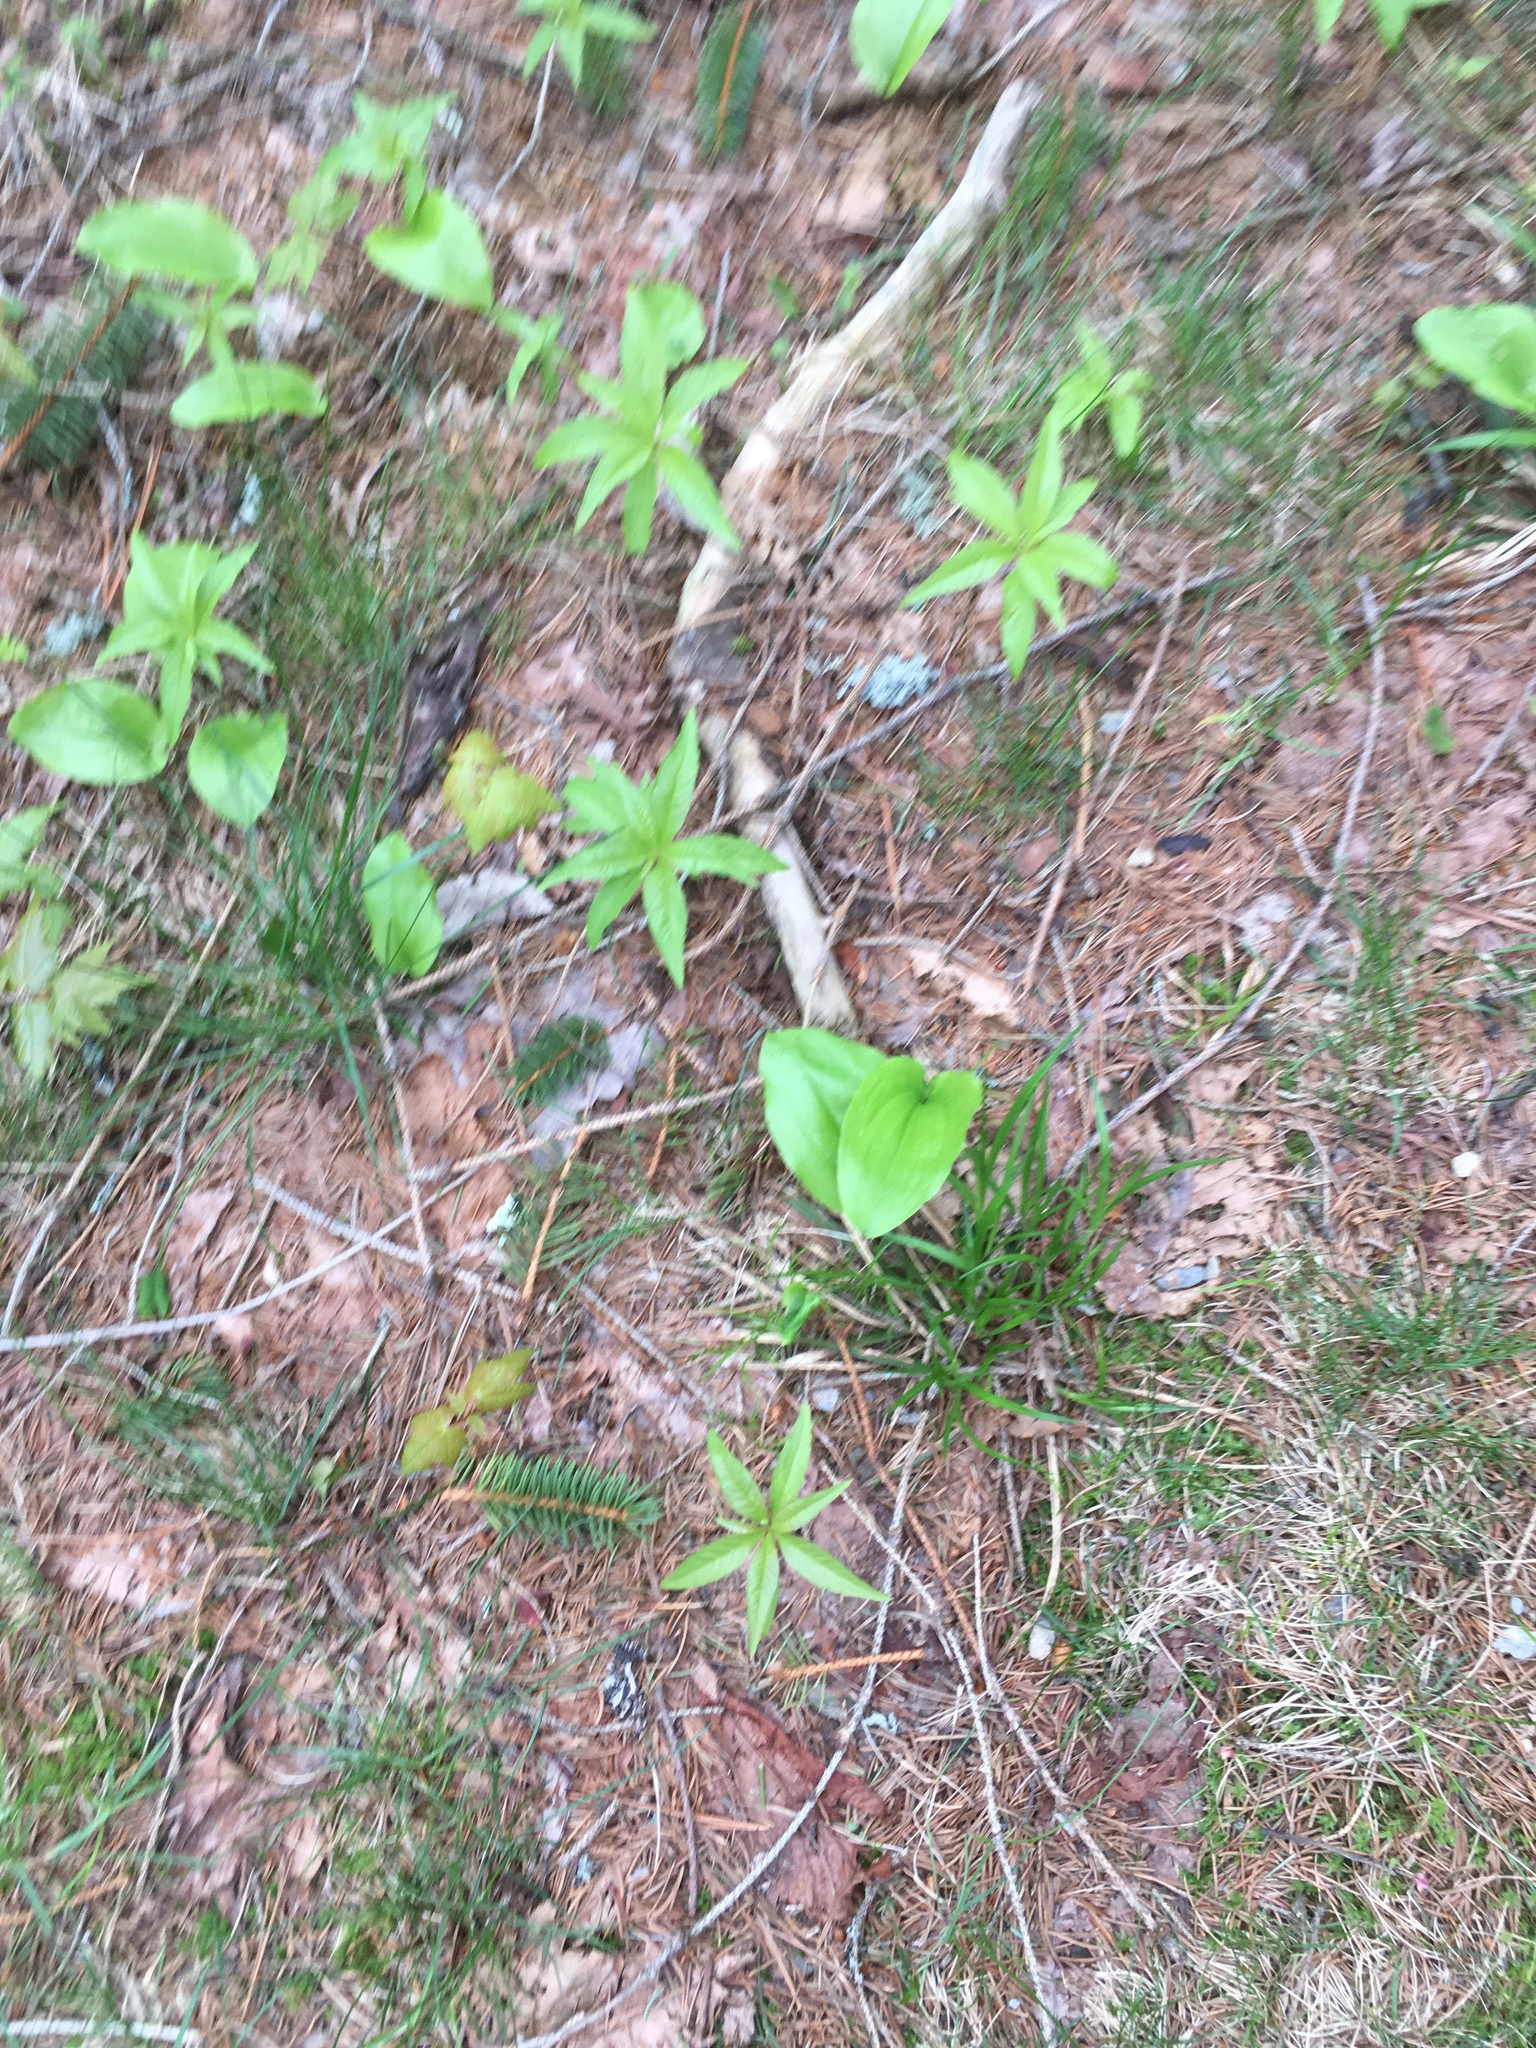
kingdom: Plantae
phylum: Tracheophyta
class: Magnoliopsida
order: Ericales
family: Primulaceae
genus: Lysimachia
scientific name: Lysimachia borealis
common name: American starflower
